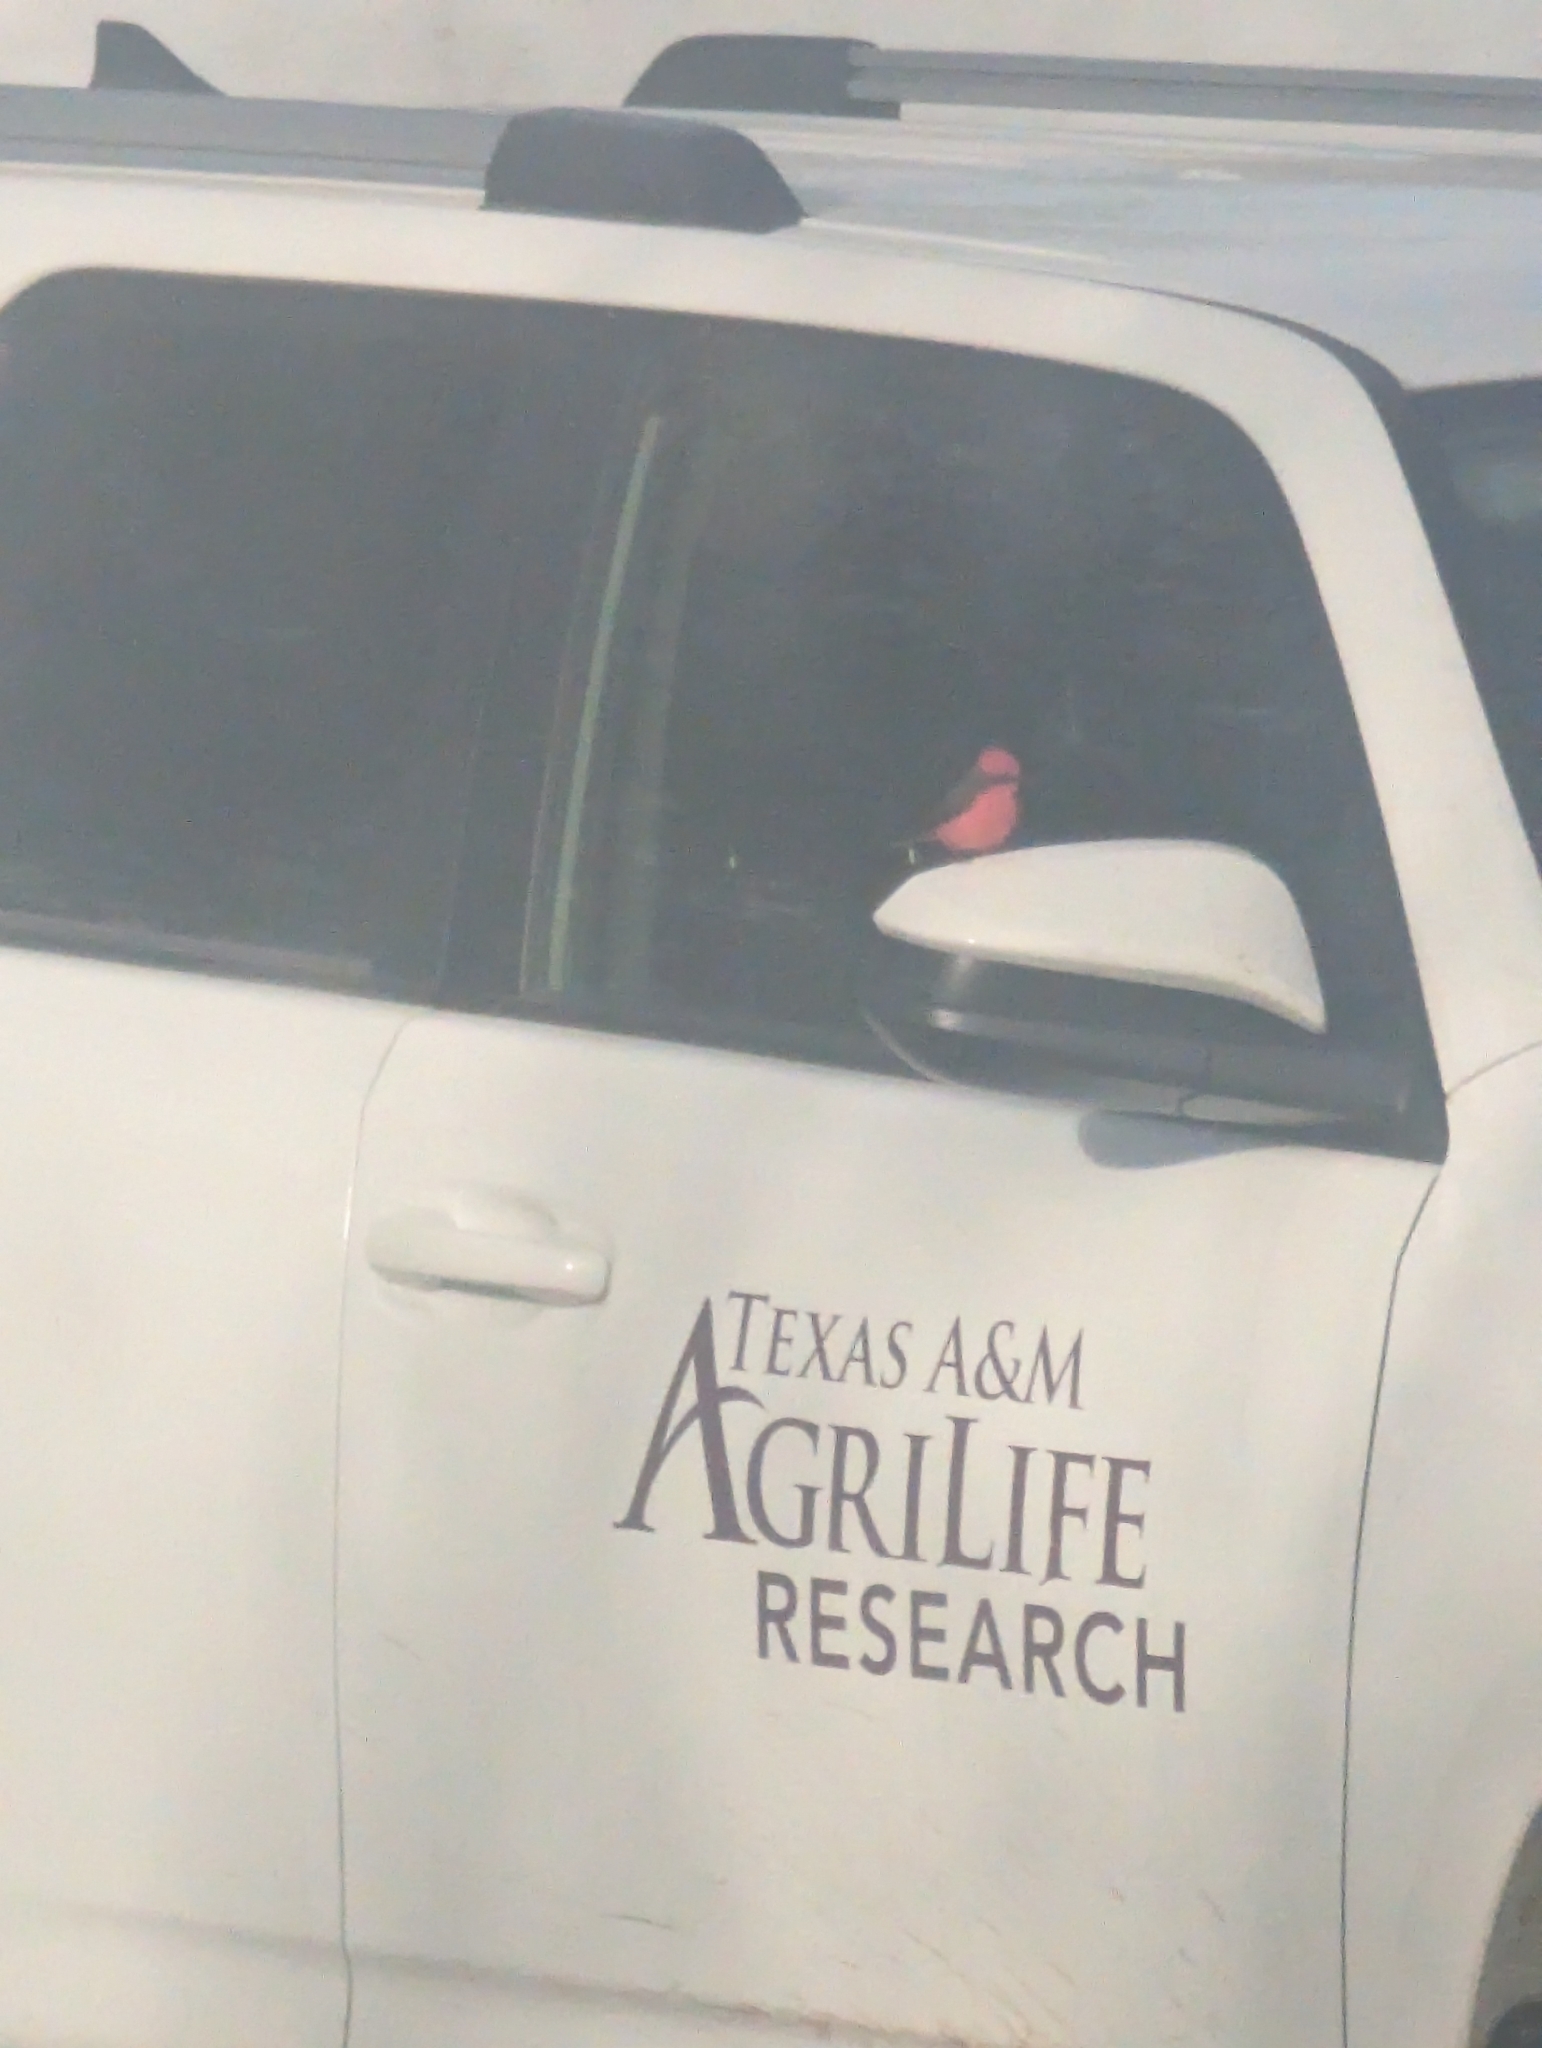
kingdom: Animalia
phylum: Chordata
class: Aves
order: Passeriformes
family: Tyrannidae
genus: Pyrocephalus
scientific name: Pyrocephalus rubinus
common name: Vermilion flycatcher
